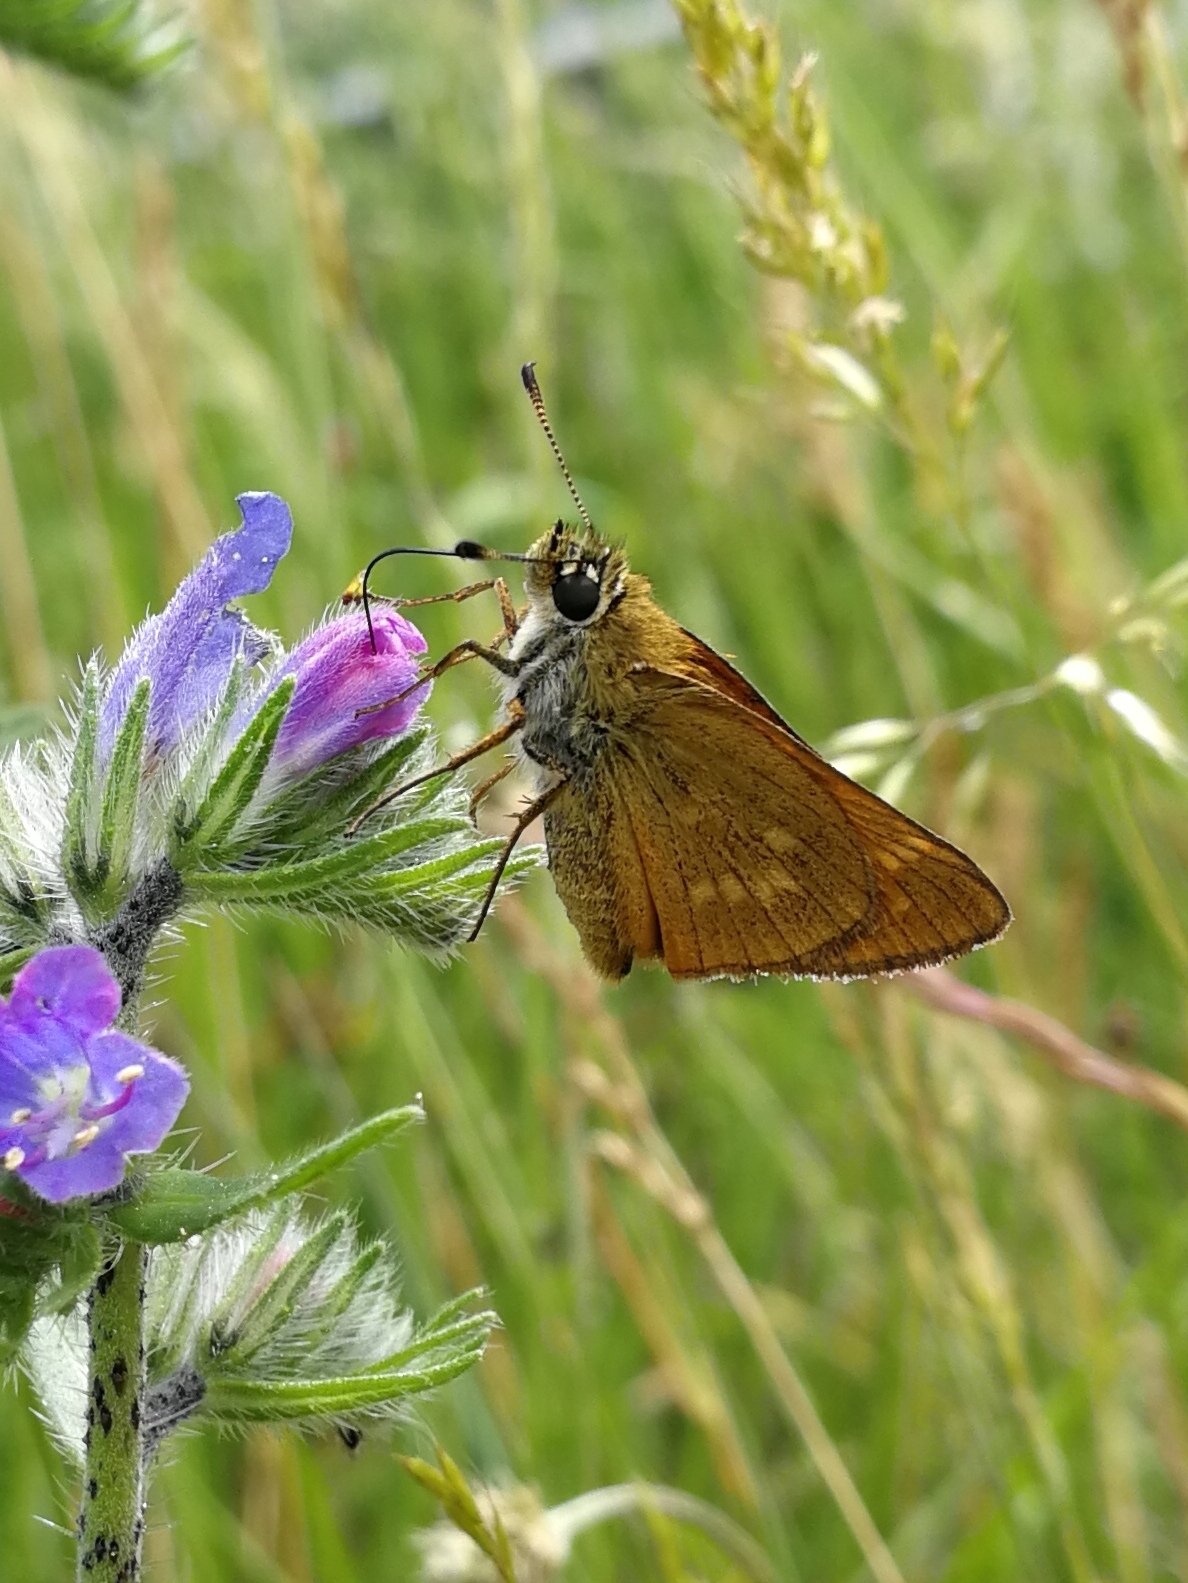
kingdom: Animalia
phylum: Arthropoda
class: Insecta
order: Lepidoptera
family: Hesperiidae
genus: Ochlodes
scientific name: Ochlodes venata
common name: Large skipper
